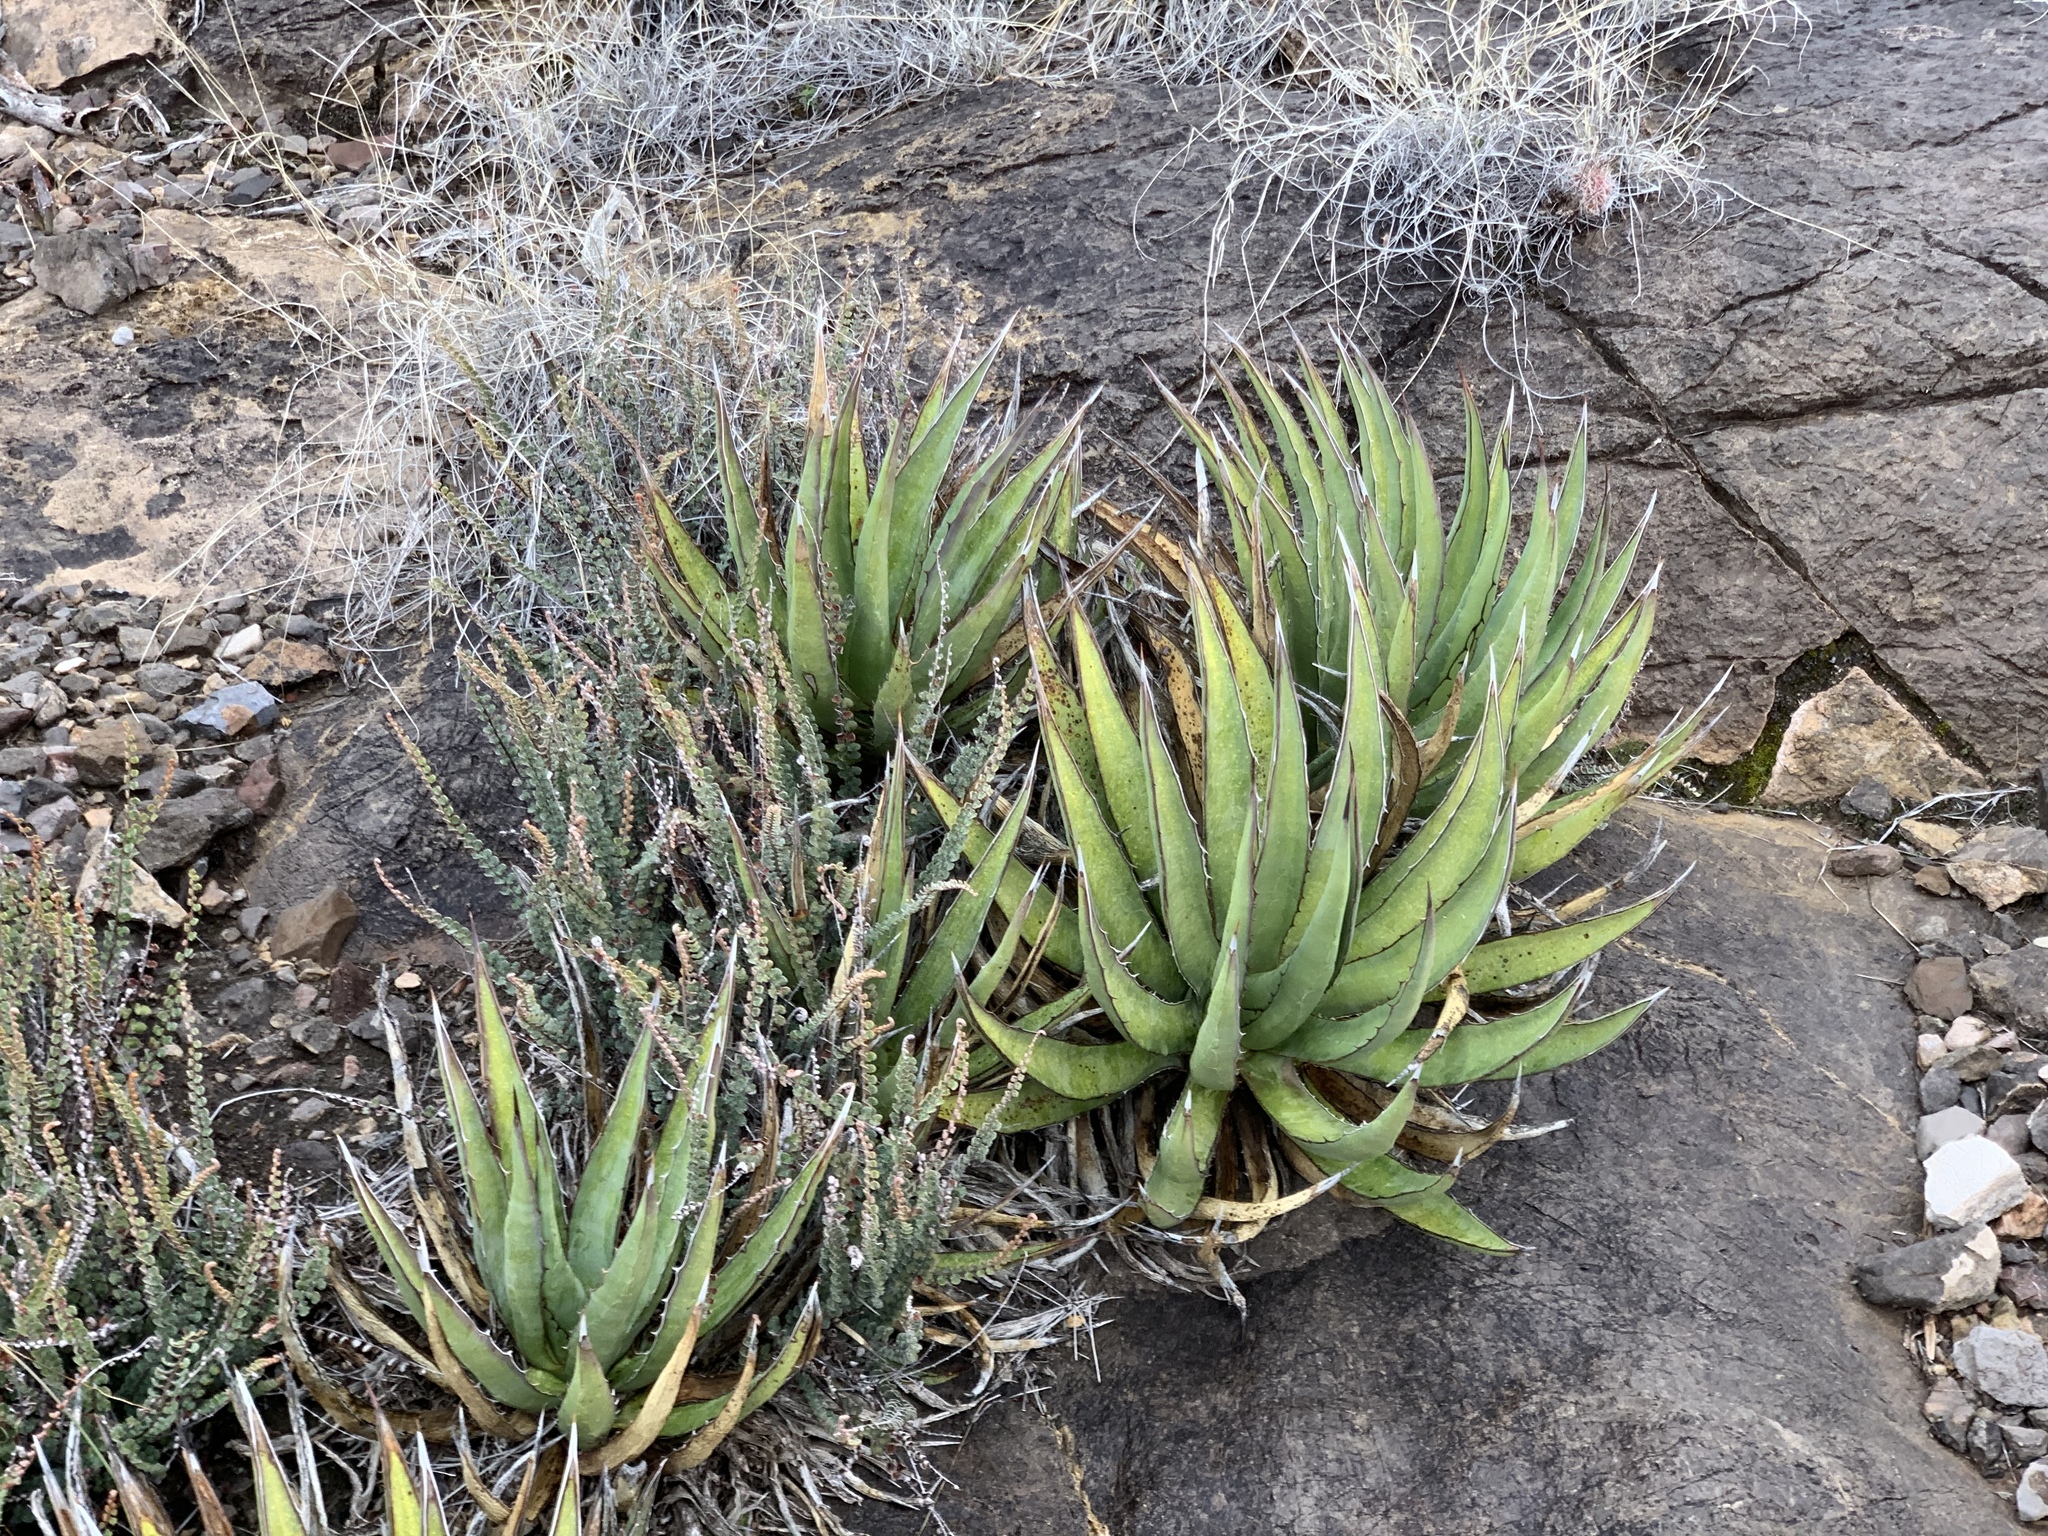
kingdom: Plantae
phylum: Tracheophyta
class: Liliopsida
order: Asparagales
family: Asparagaceae
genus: Agave
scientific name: Agave lechuguilla
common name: Lecheguilla agave
